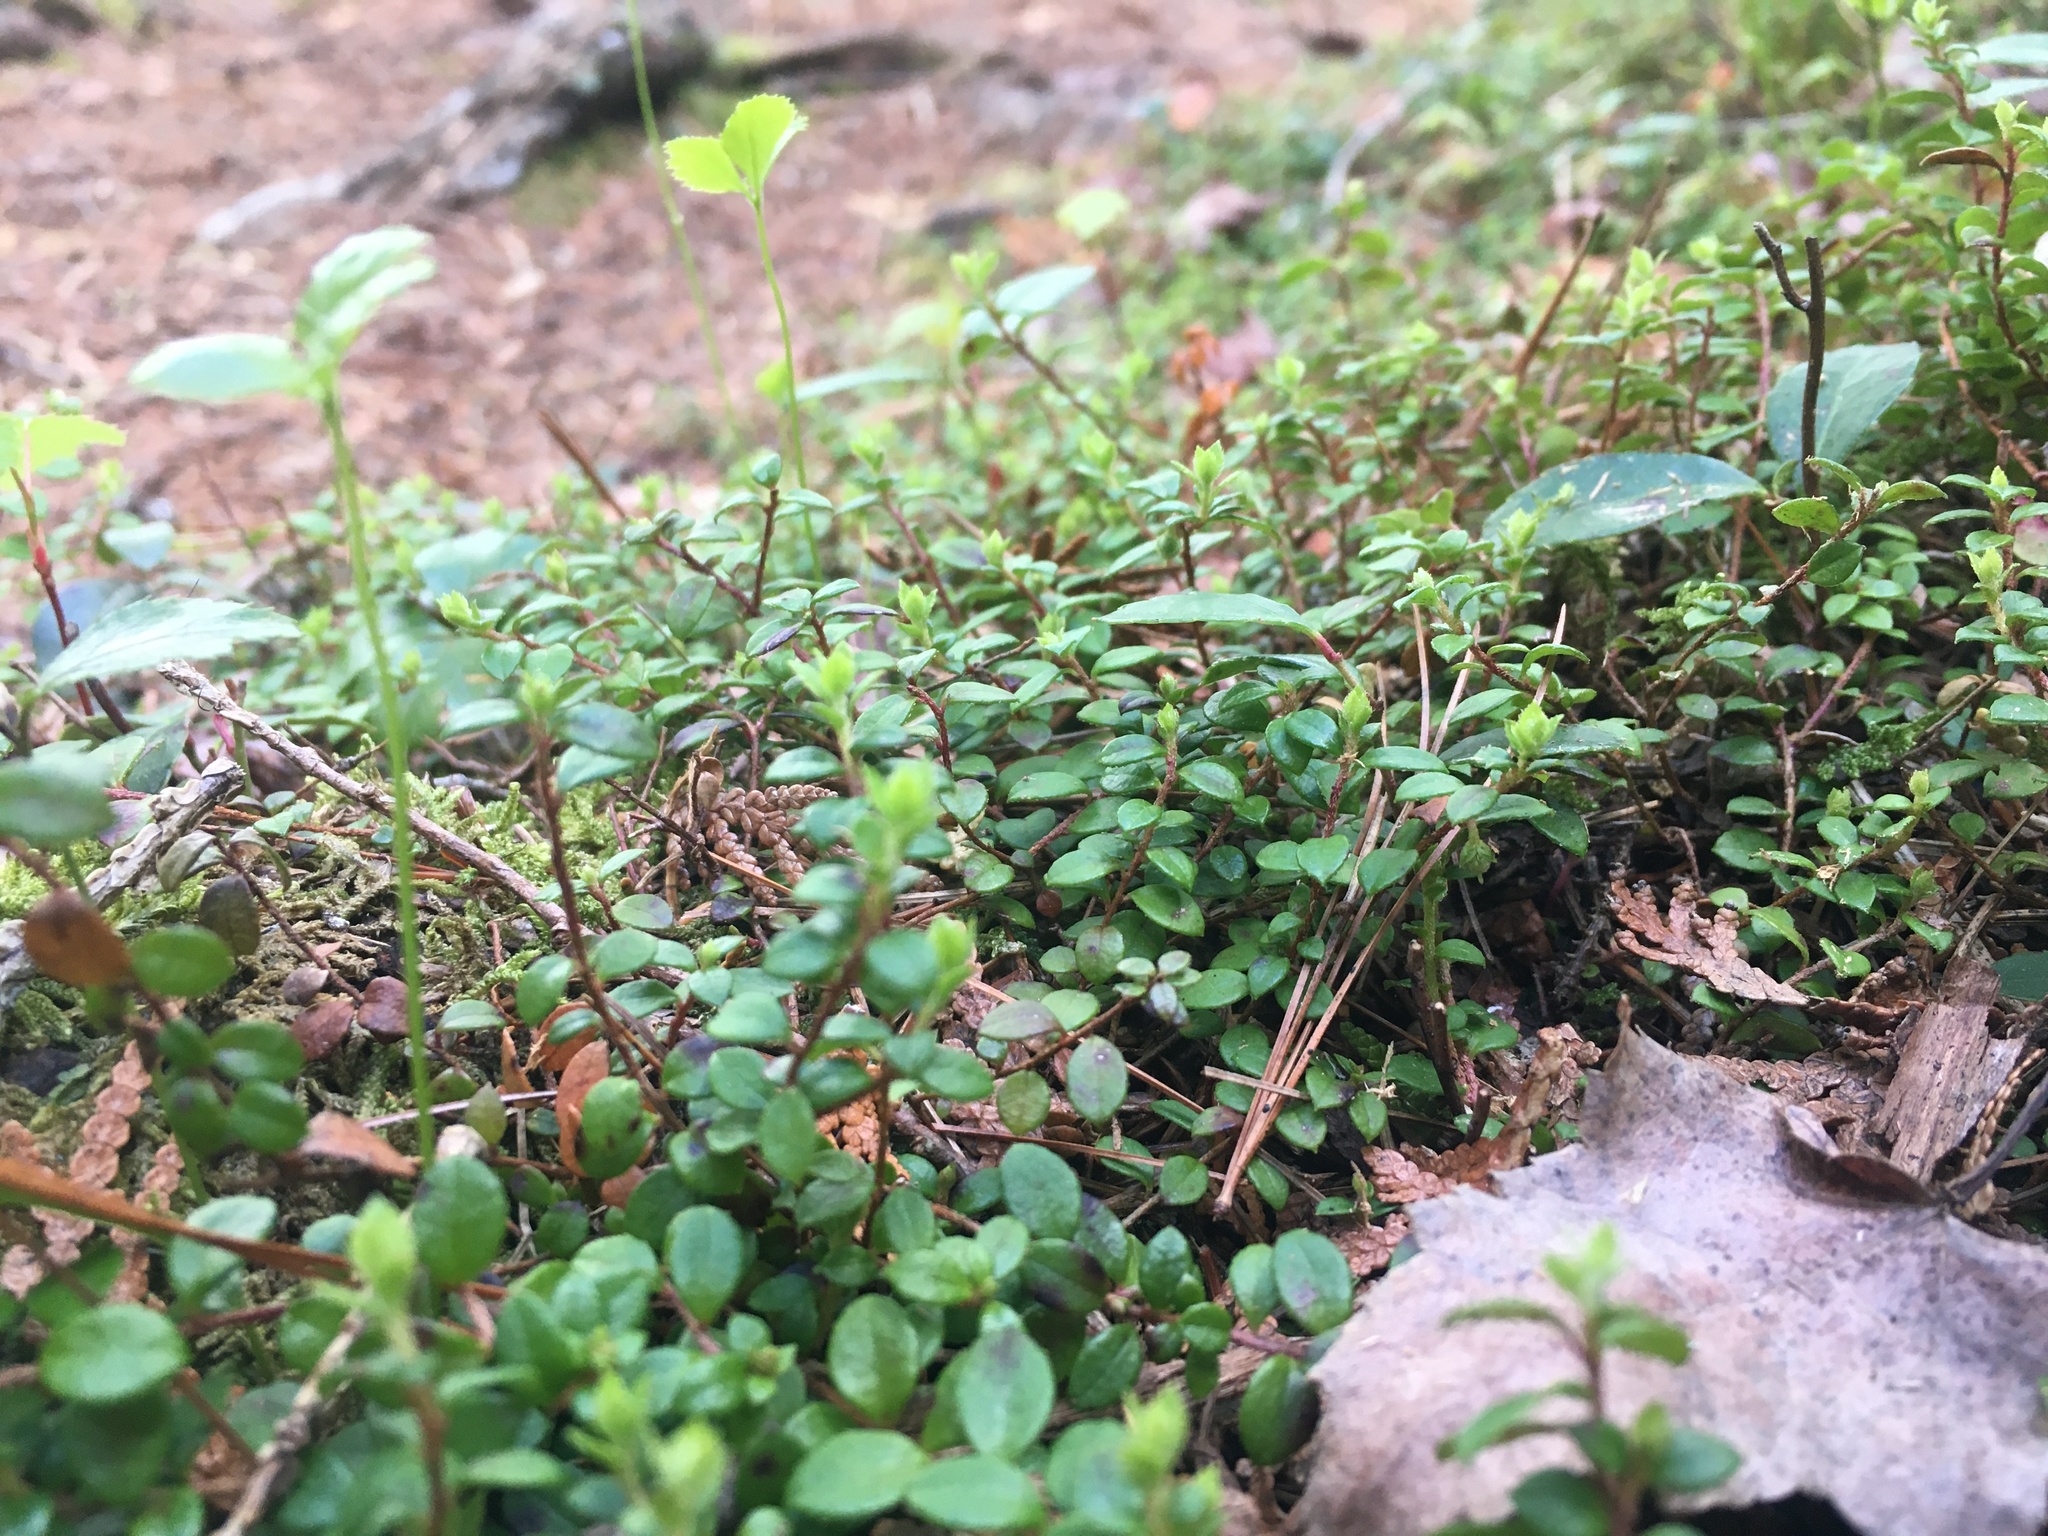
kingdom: Plantae
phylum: Tracheophyta
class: Magnoliopsida
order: Ericales
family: Ericaceae
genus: Gaultheria
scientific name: Gaultheria hispidula
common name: Cancer wintergreen
